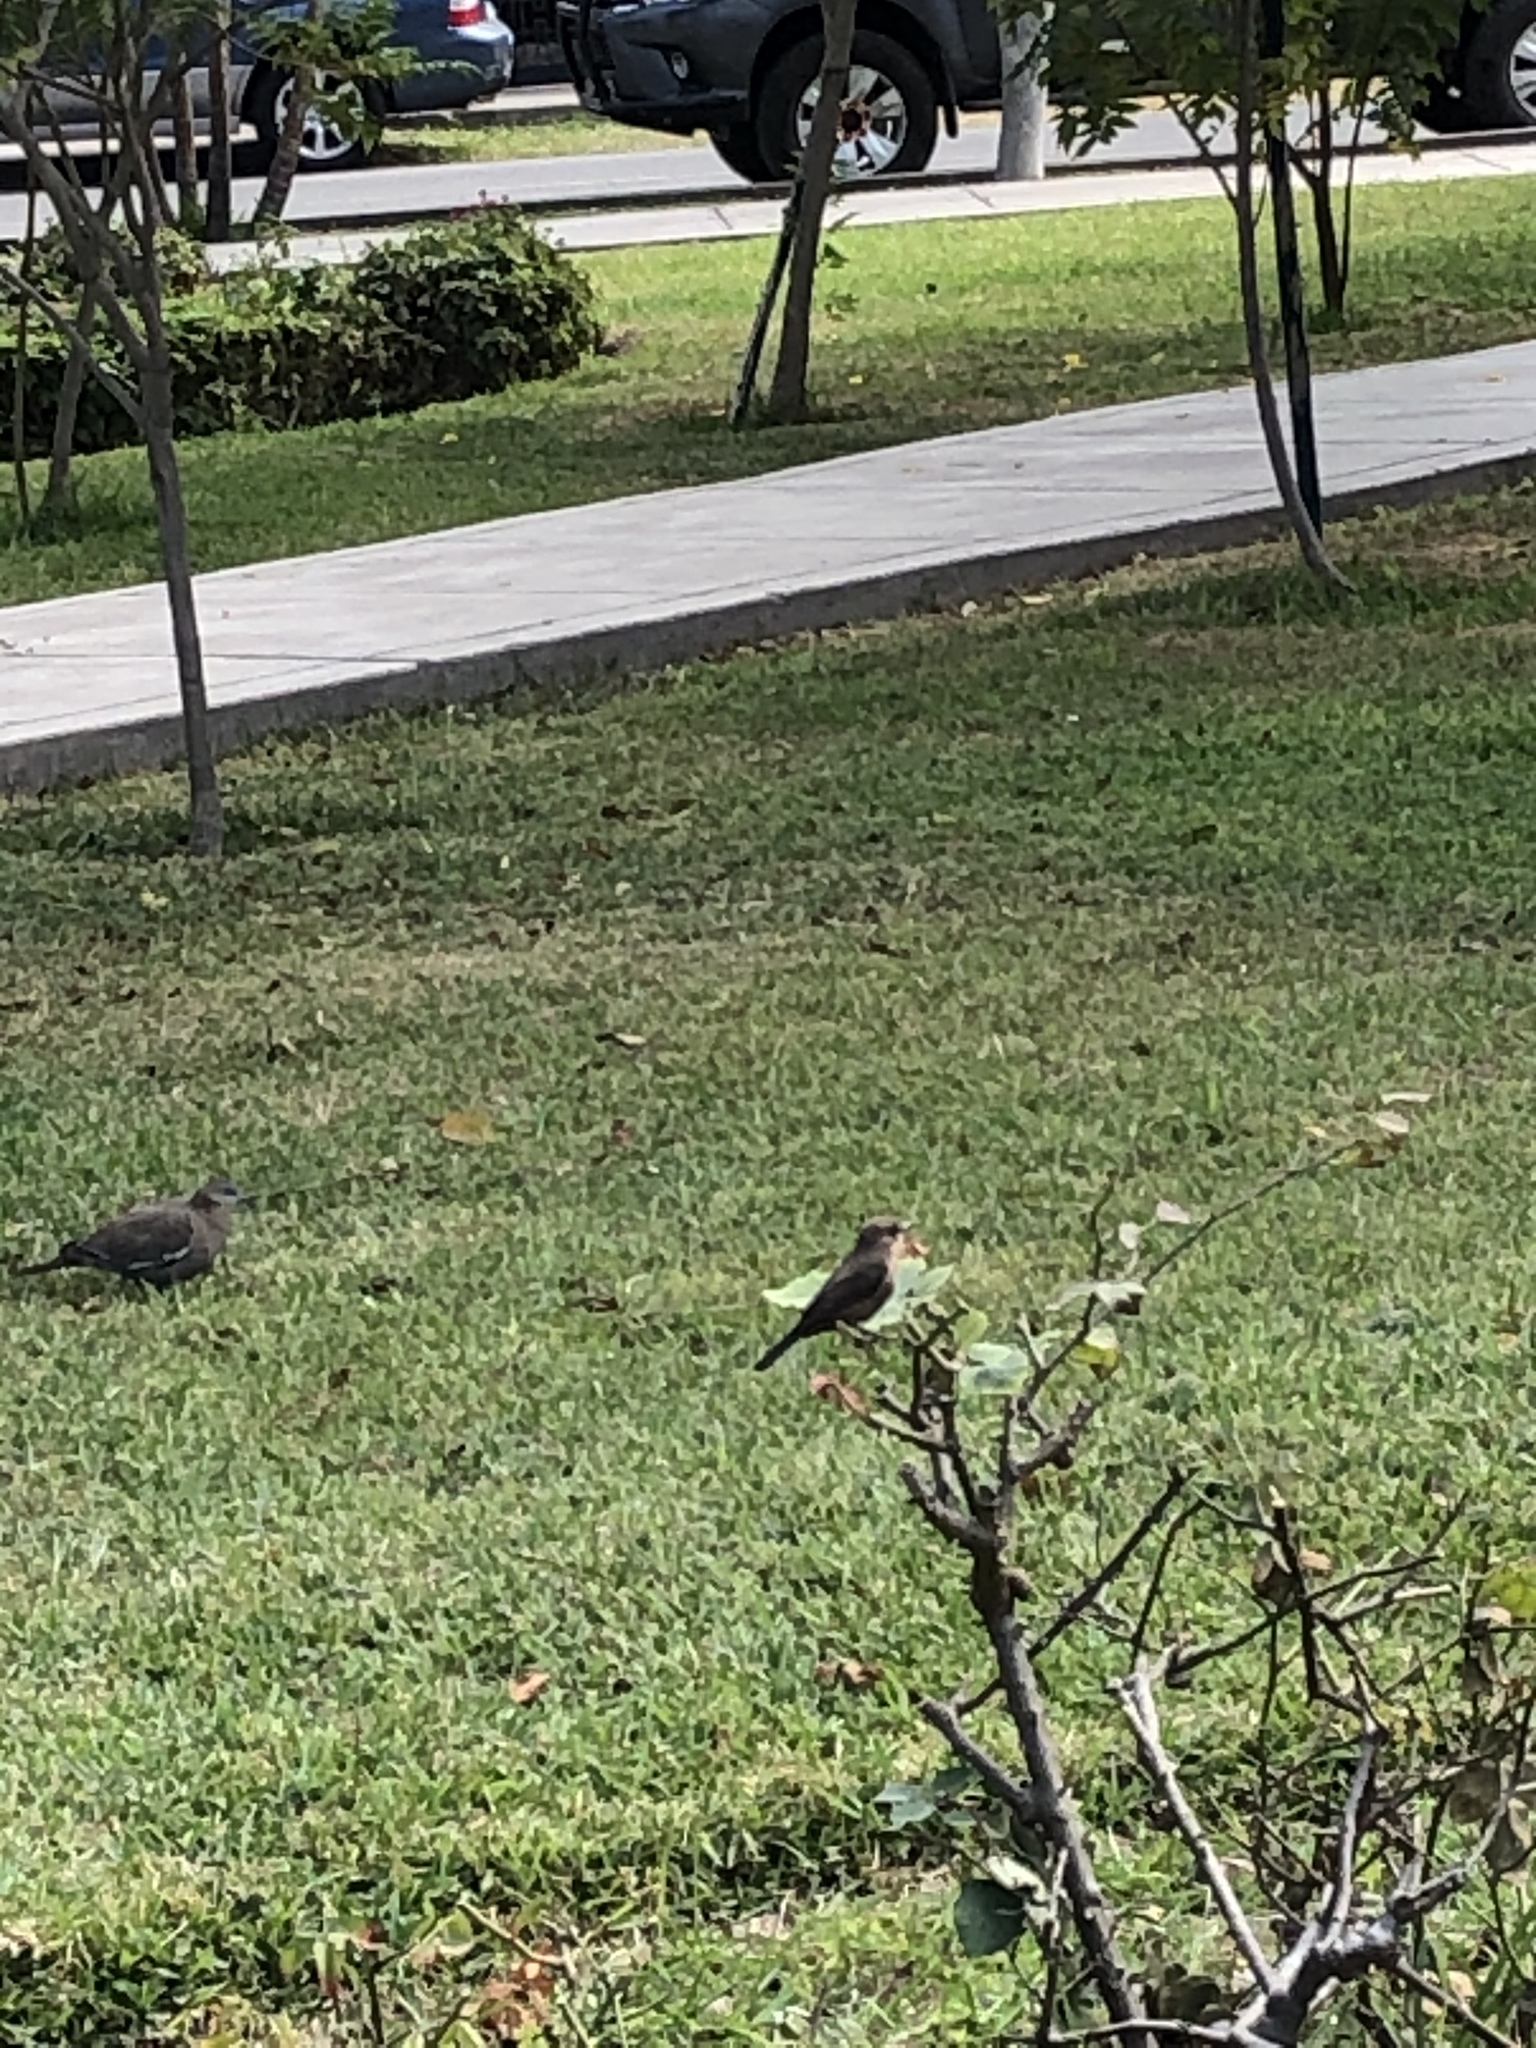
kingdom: Animalia
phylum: Chordata
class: Aves
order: Passeriformes
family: Tyrannidae
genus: Pyrocephalus
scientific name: Pyrocephalus rubinus
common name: Vermilion flycatcher
